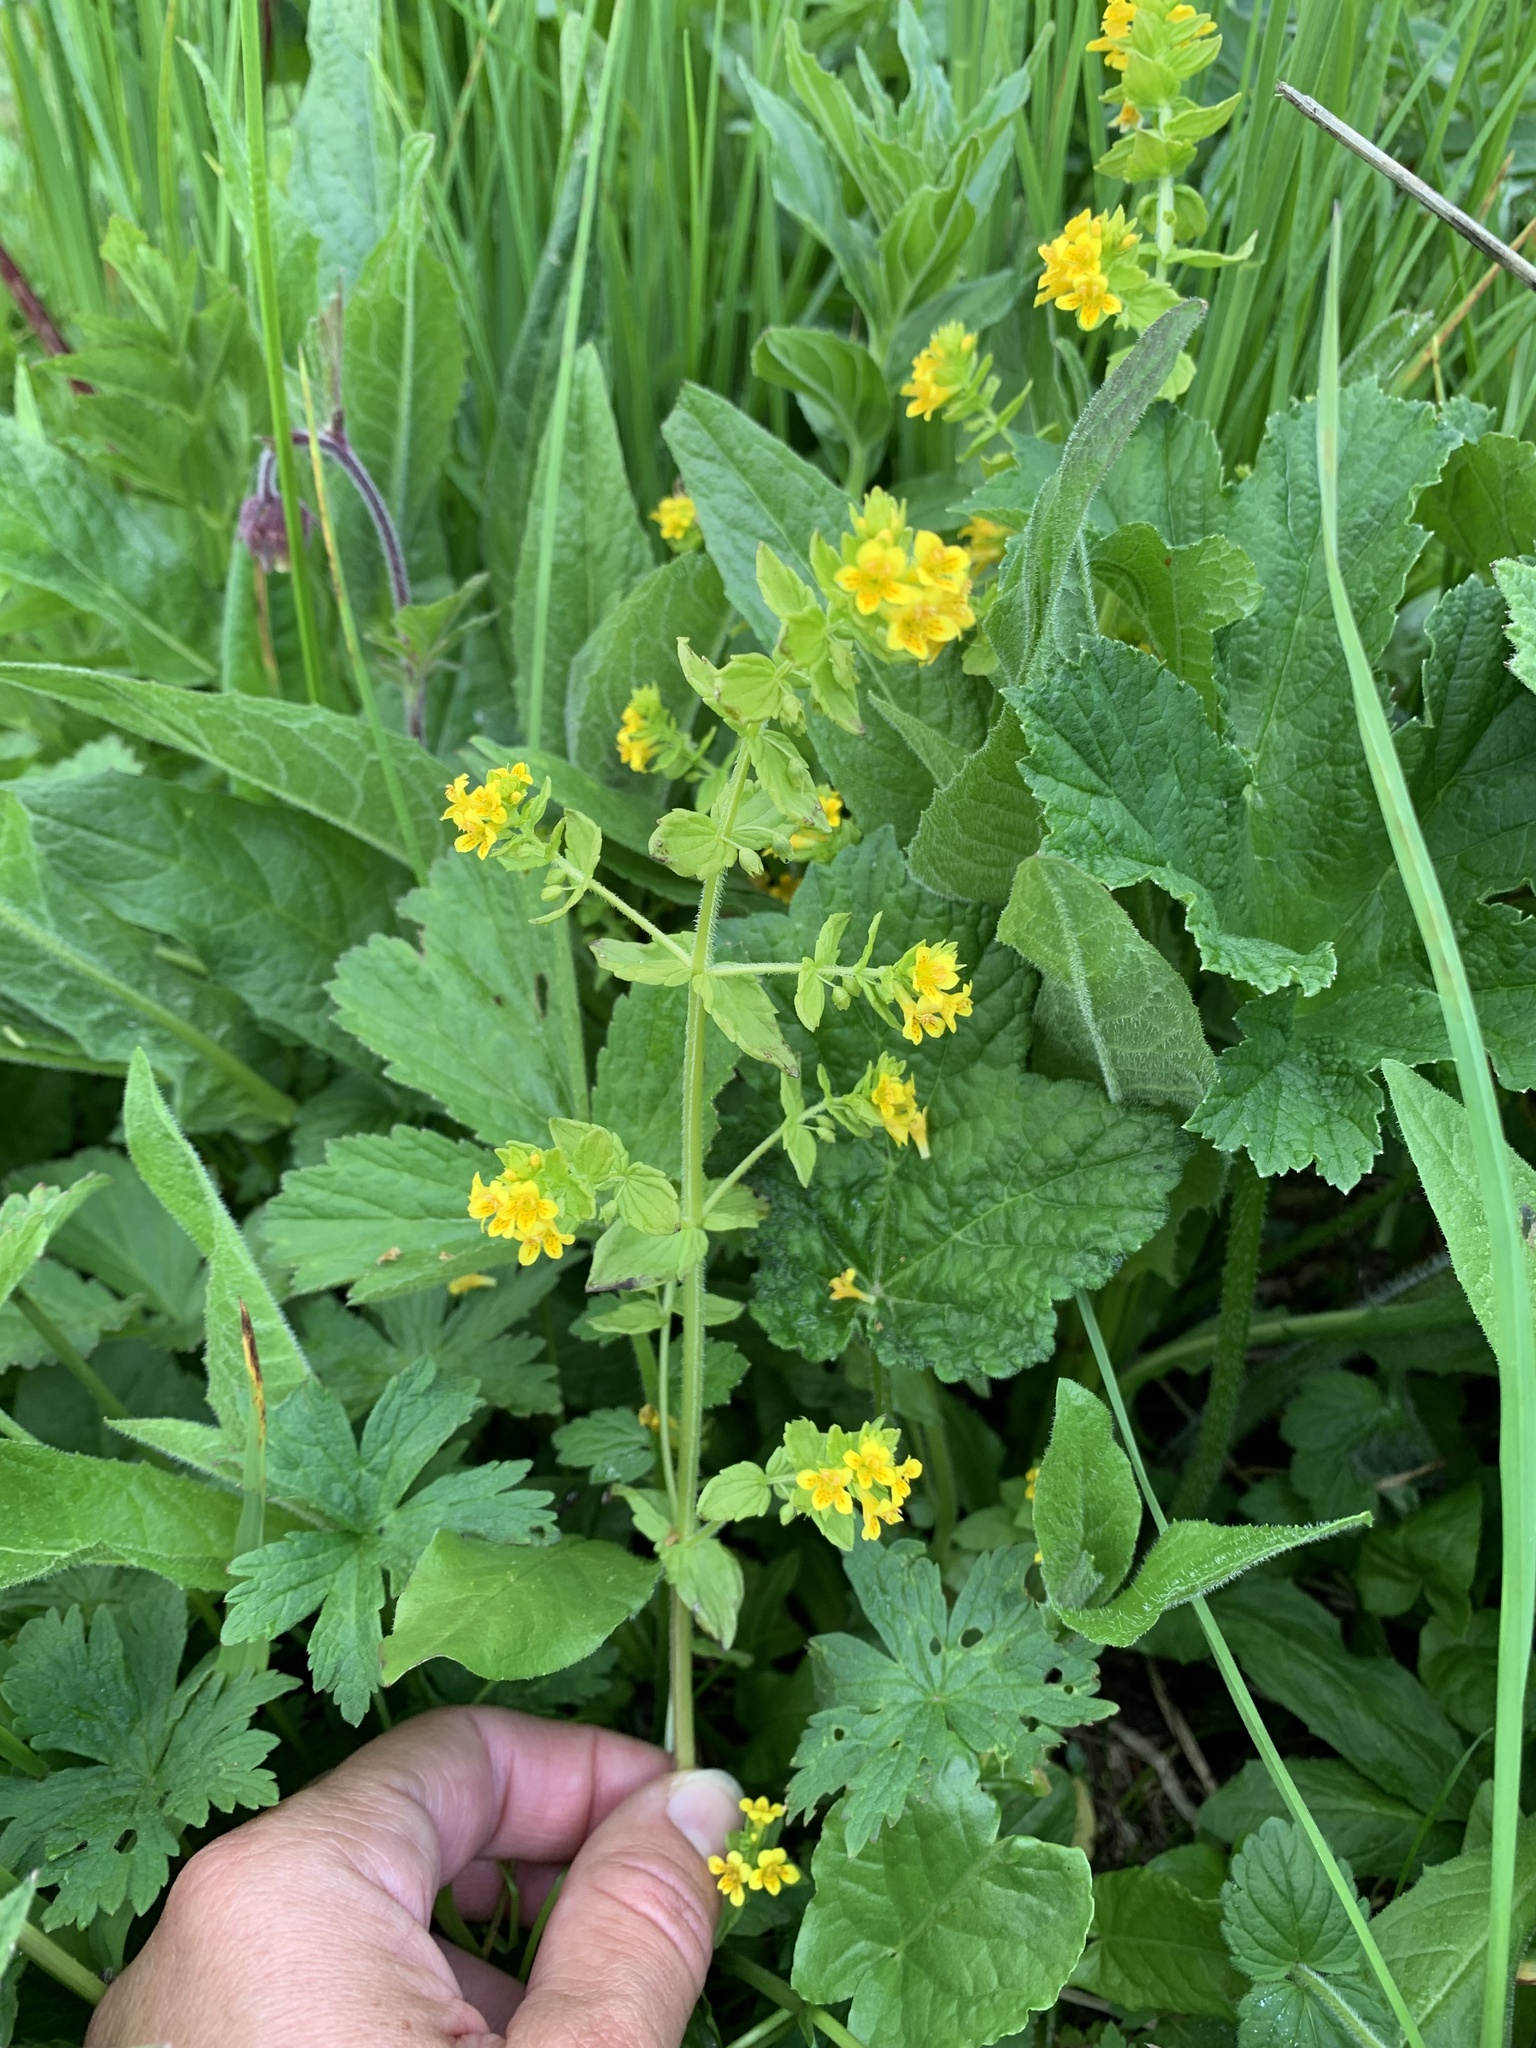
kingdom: Plantae
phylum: Tracheophyta
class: Magnoliopsida
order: Lamiales
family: Orobanchaceae
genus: Tozzia
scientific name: Tozzia alpina
